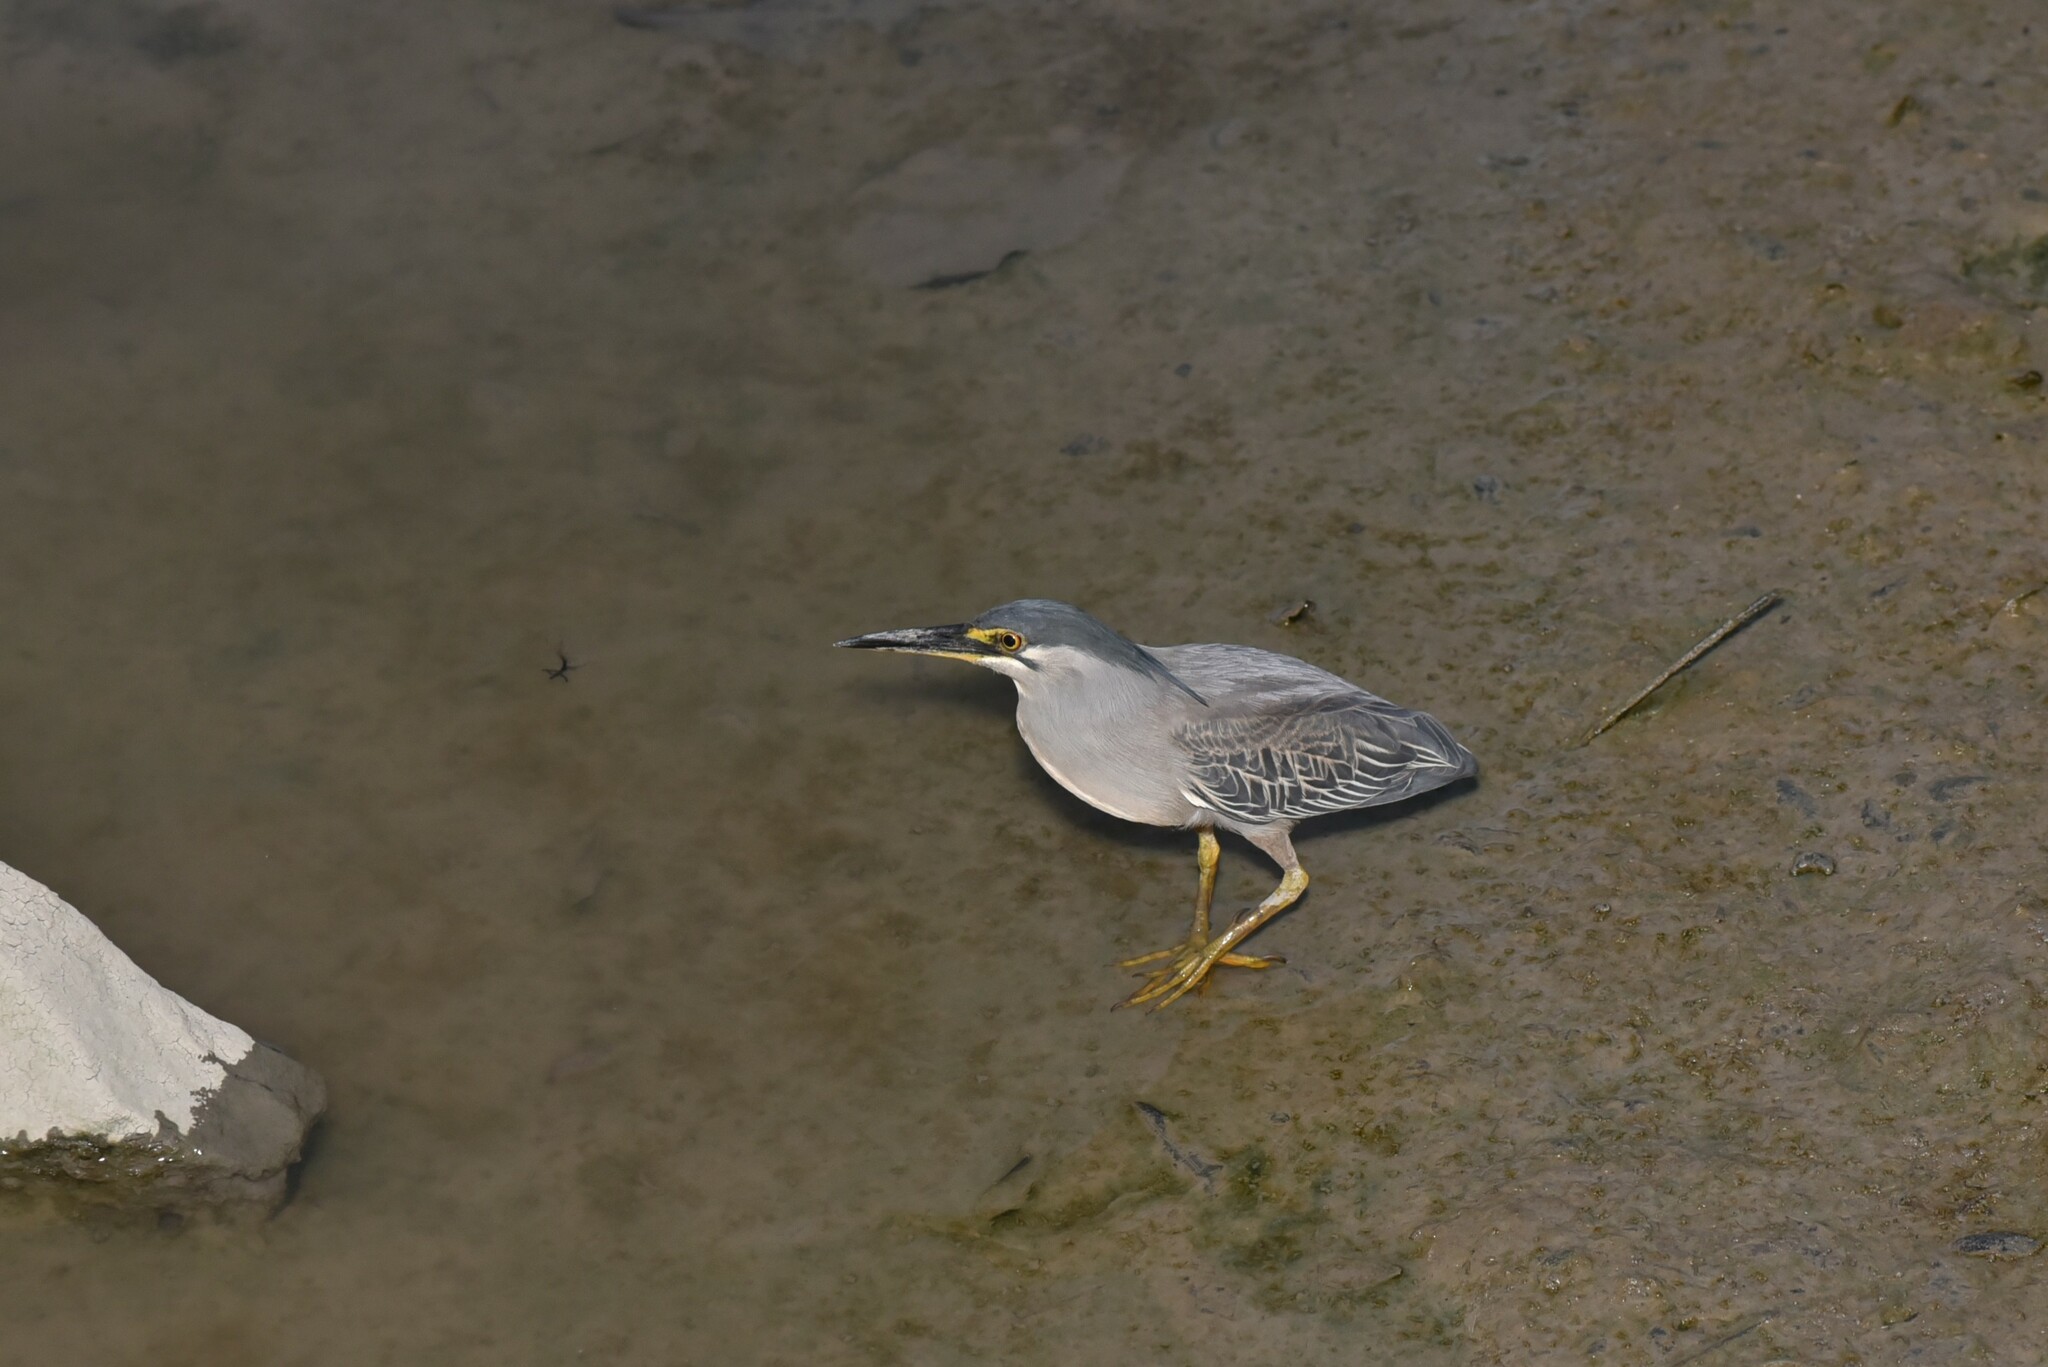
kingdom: Animalia
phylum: Chordata
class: Aves
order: Pelecaniformes
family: Ardeidae
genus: Butorides
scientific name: Butorides striata
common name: Striated heron
